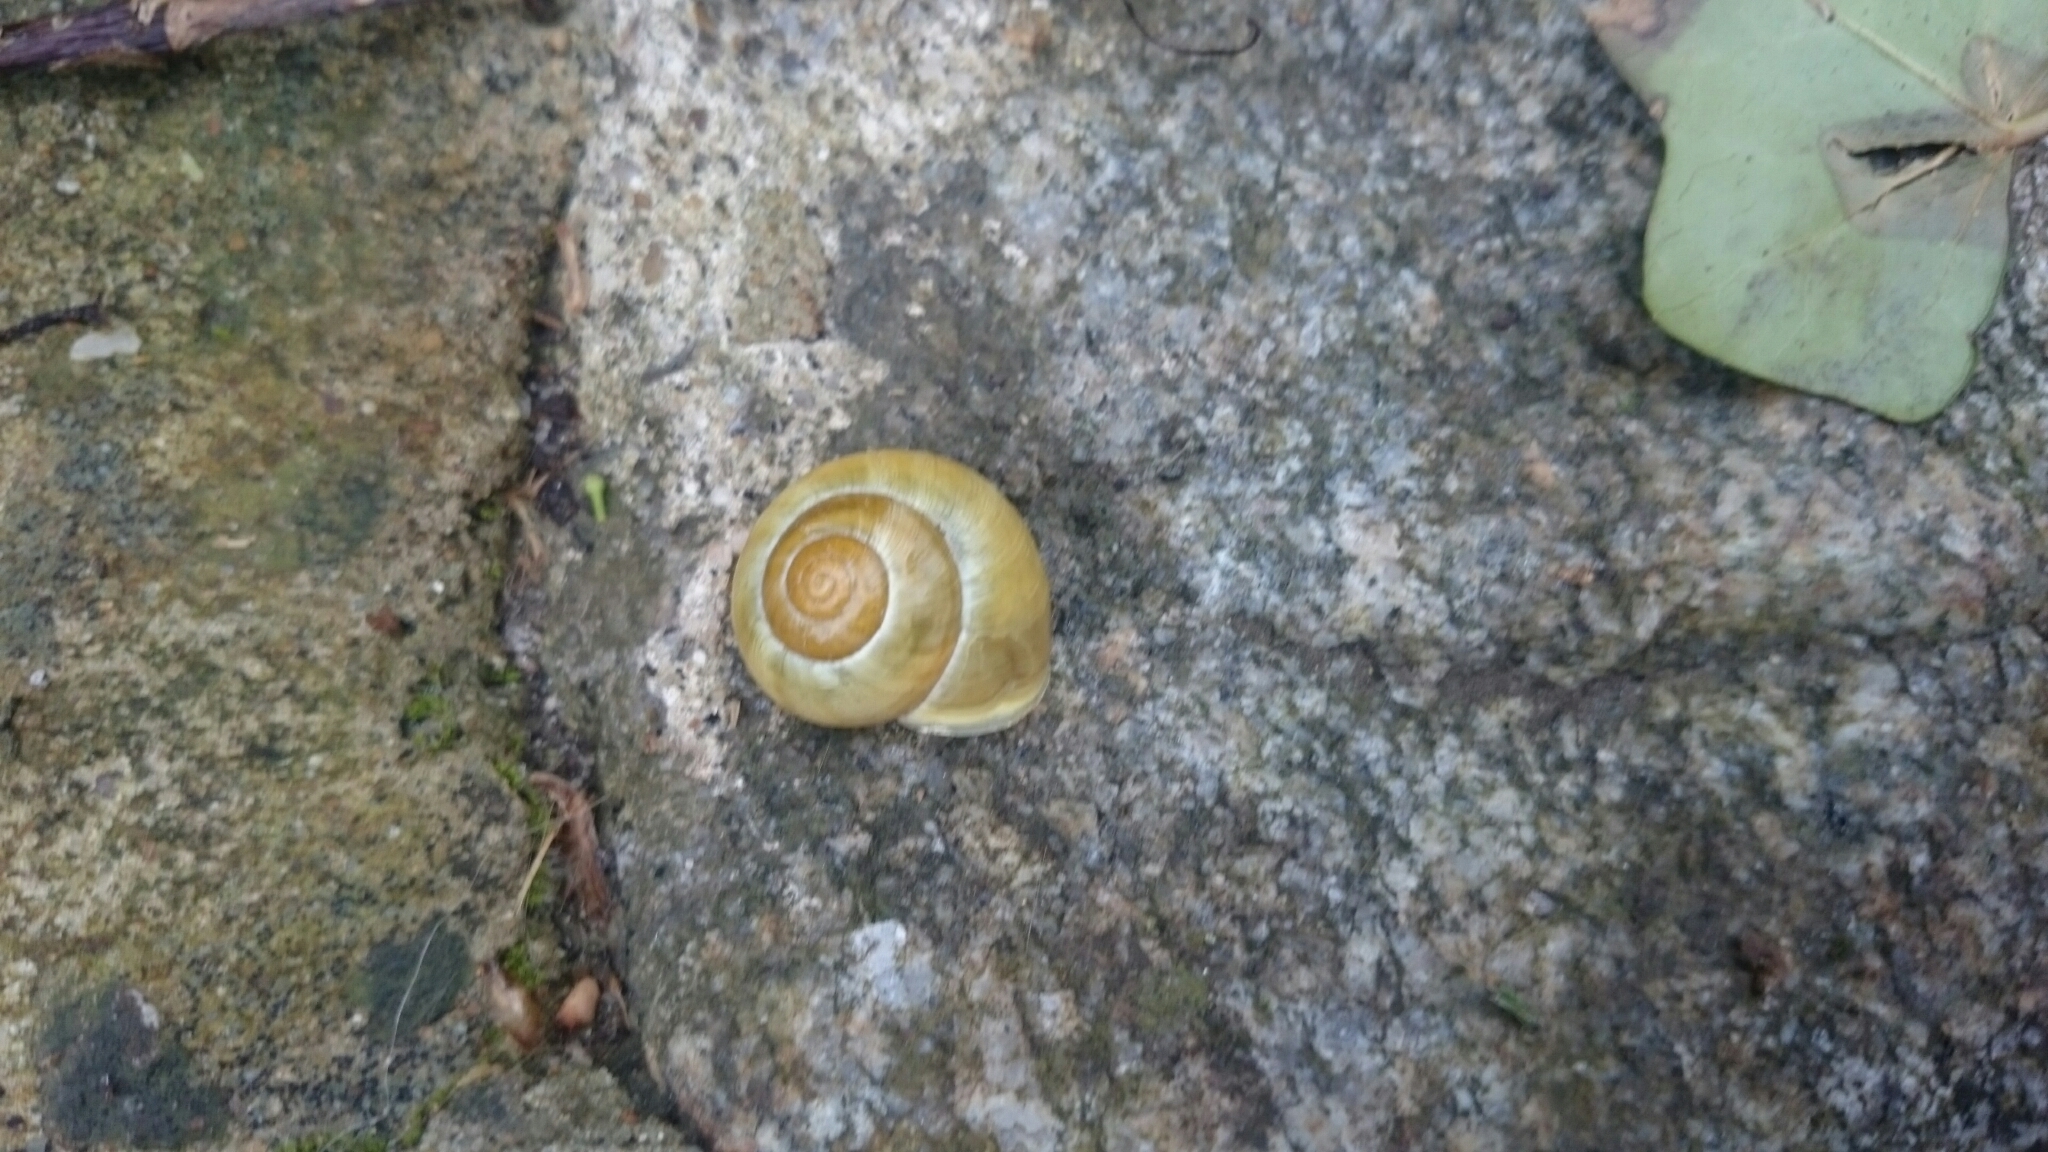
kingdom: Animalia
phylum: Mollusca
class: Gastropoda
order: Stylommatophora
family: Helicidae
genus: Cepaea
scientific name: Cepaea hortensis
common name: White-lip gardensnail
